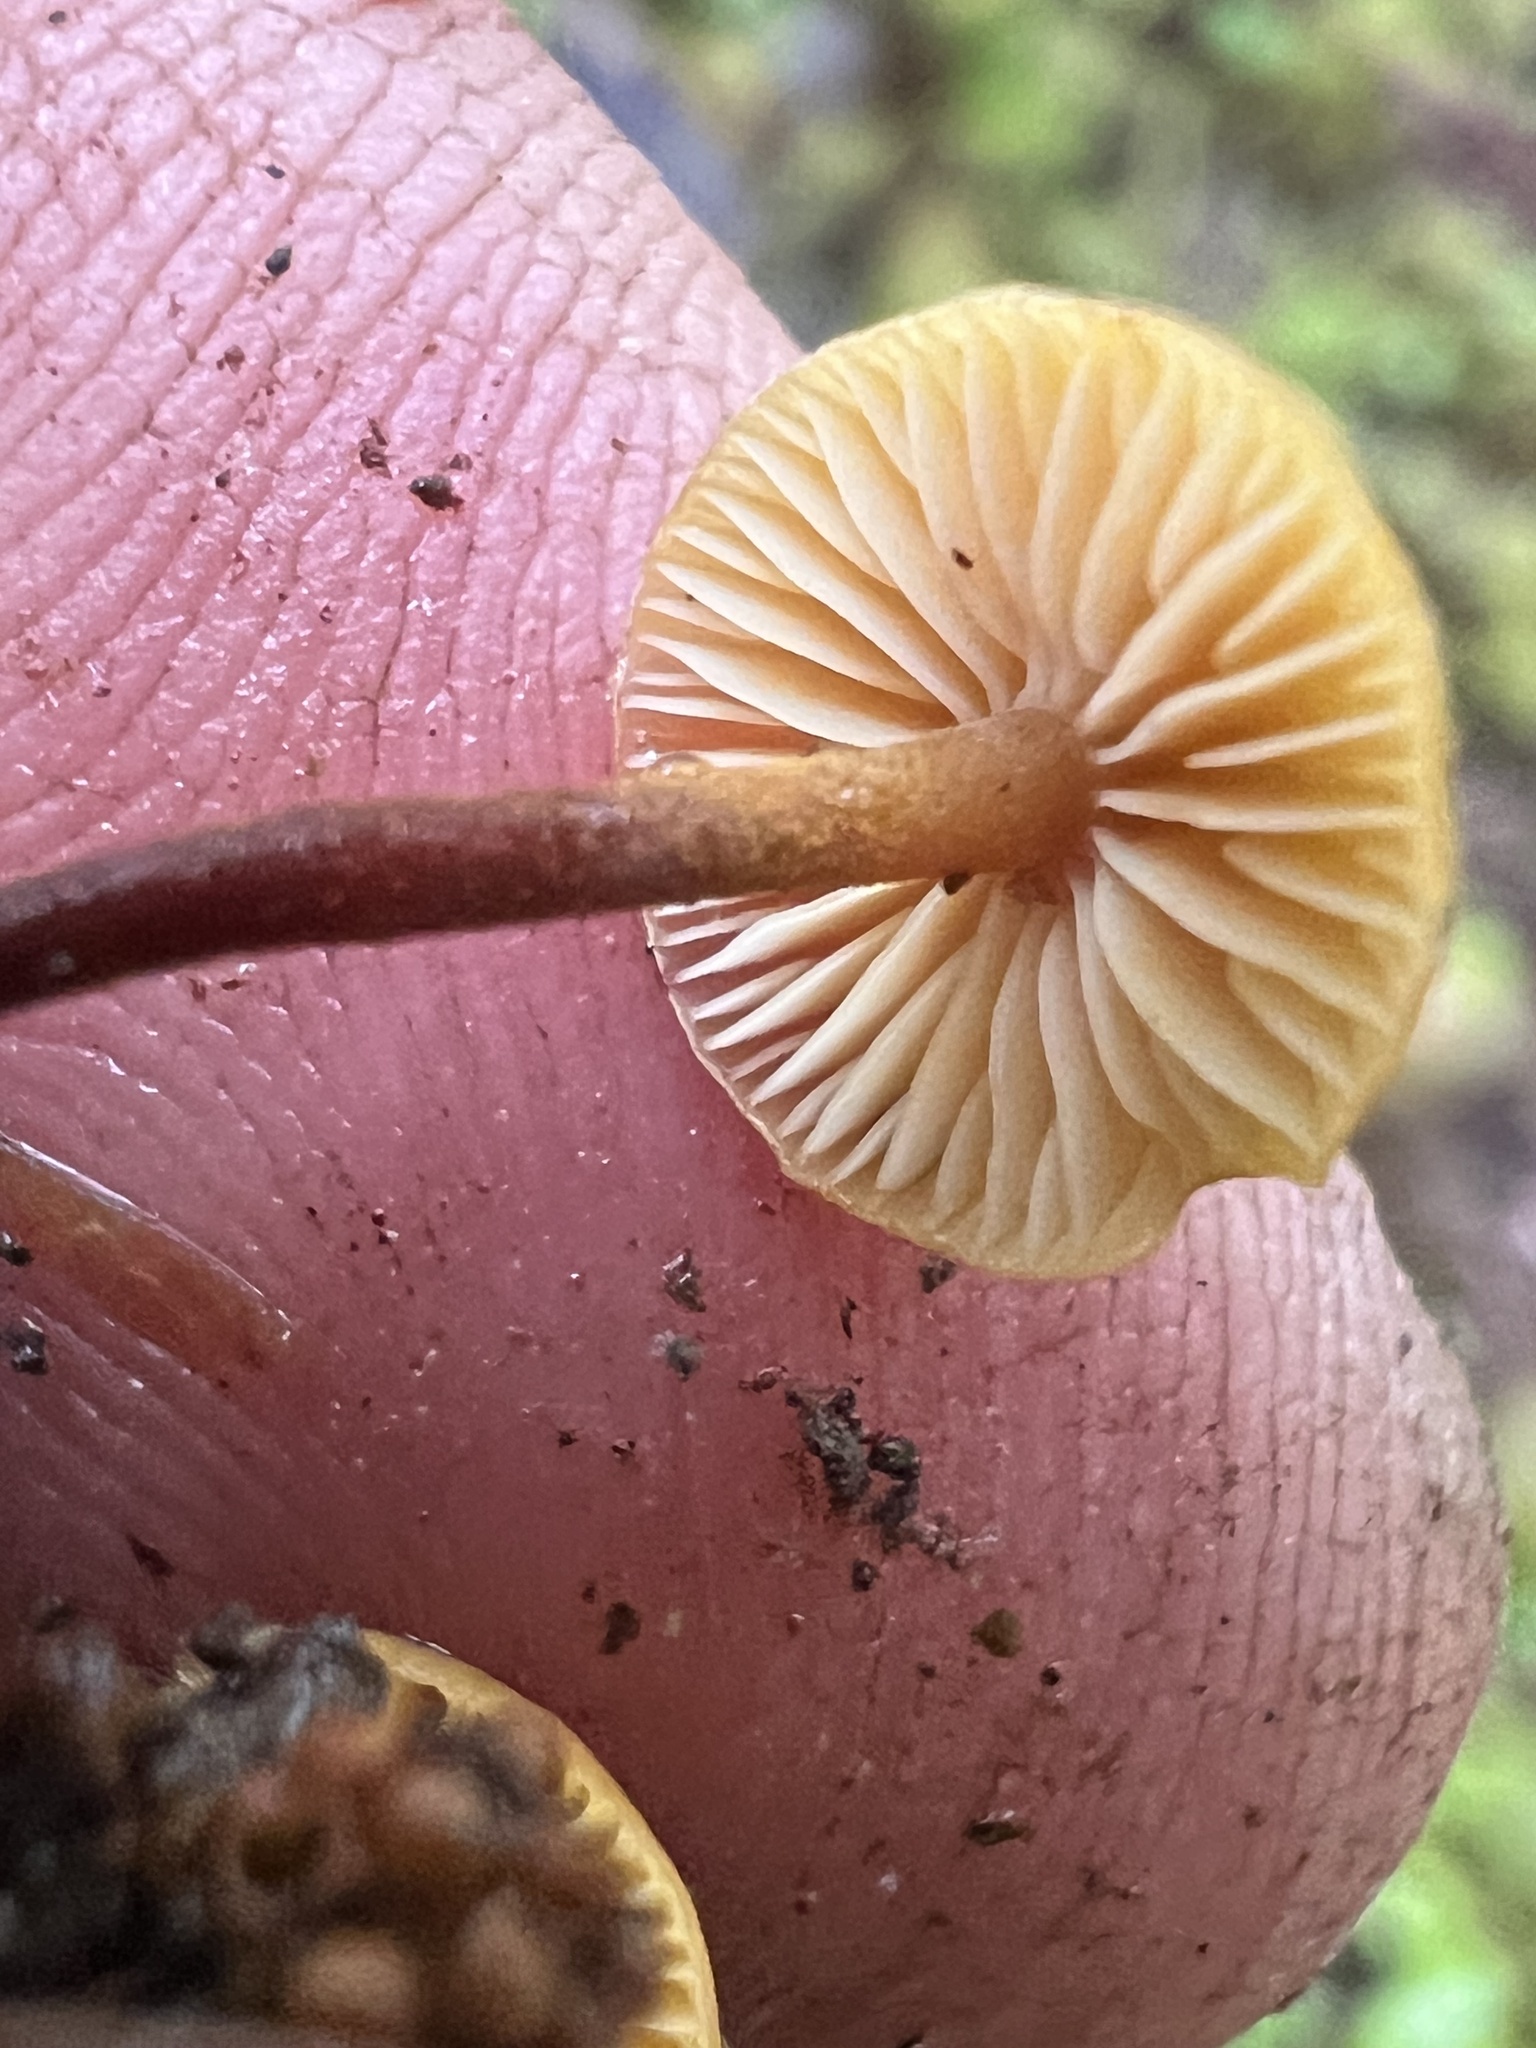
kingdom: Fungi
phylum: Basidiomycota
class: Agaricomycetes
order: Agaricales
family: Mycenaceae
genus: Xeromphalina
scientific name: Xeromphalina fulvipes
